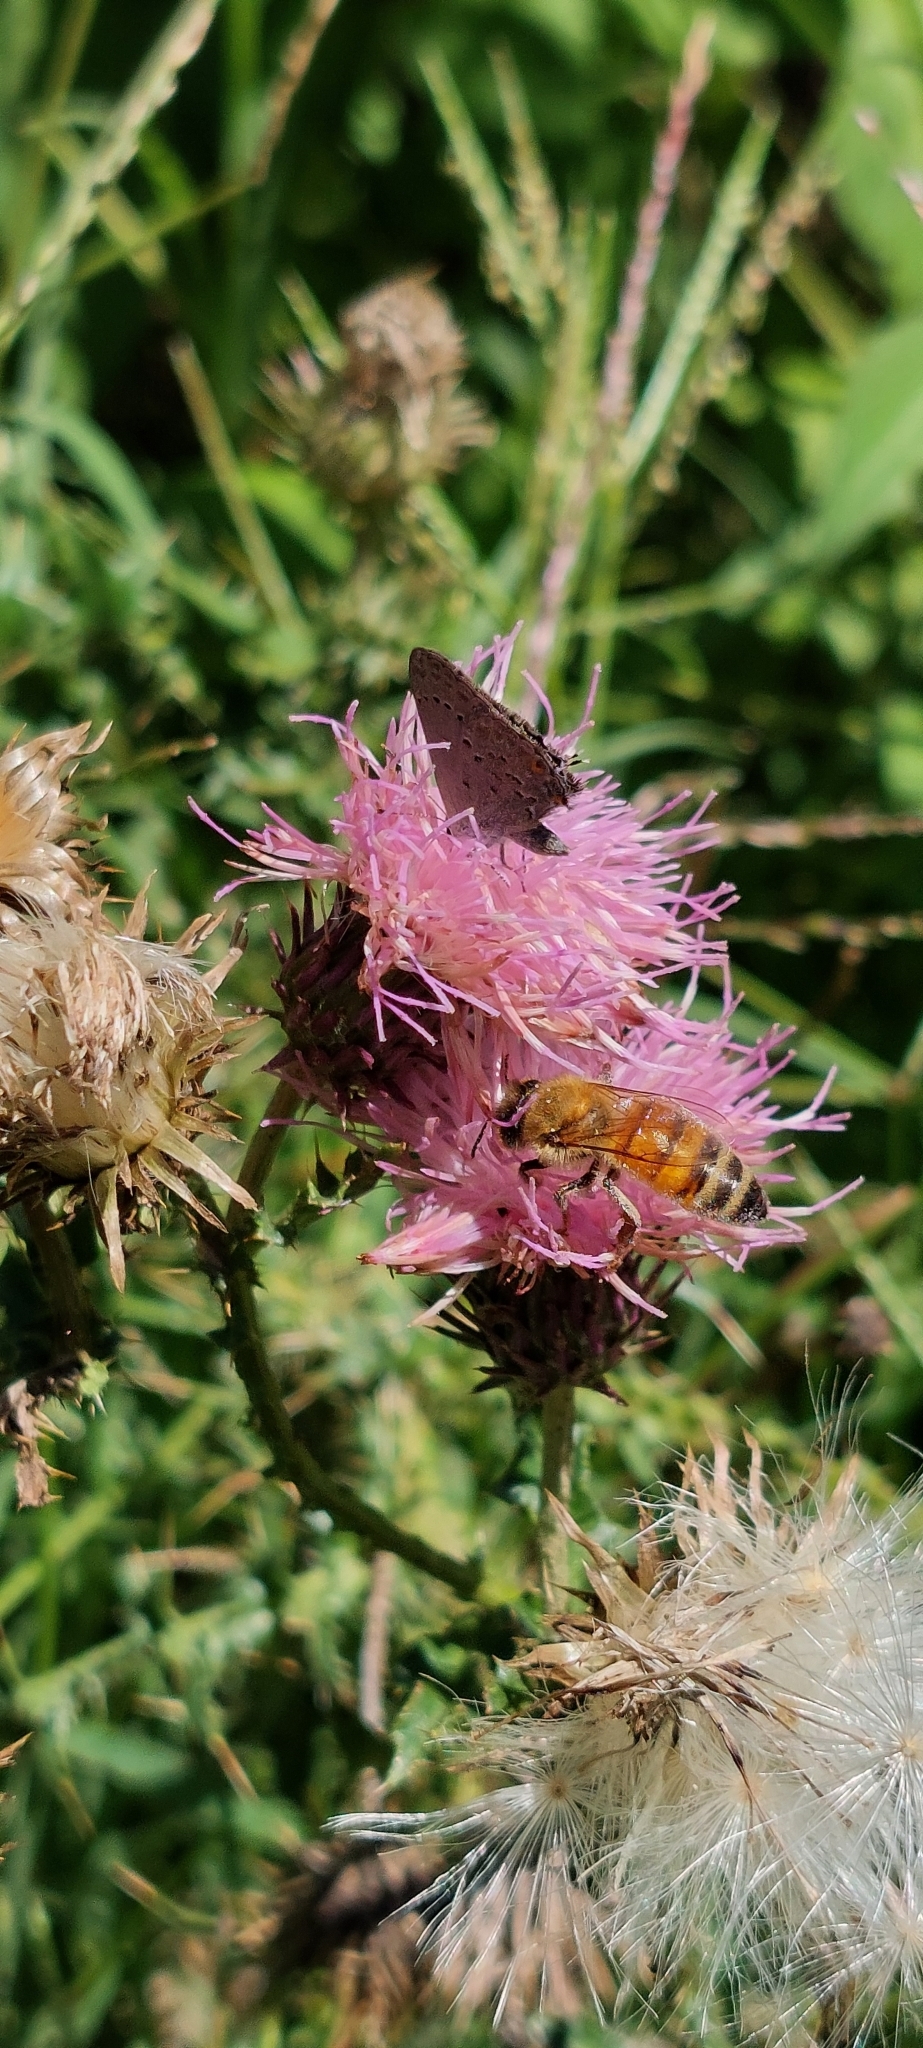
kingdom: Animalia
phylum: Arthropoda
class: Insecta
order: Hymenoptera
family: Apidae
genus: Apis
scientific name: Apis mellifera
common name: Honey bee
